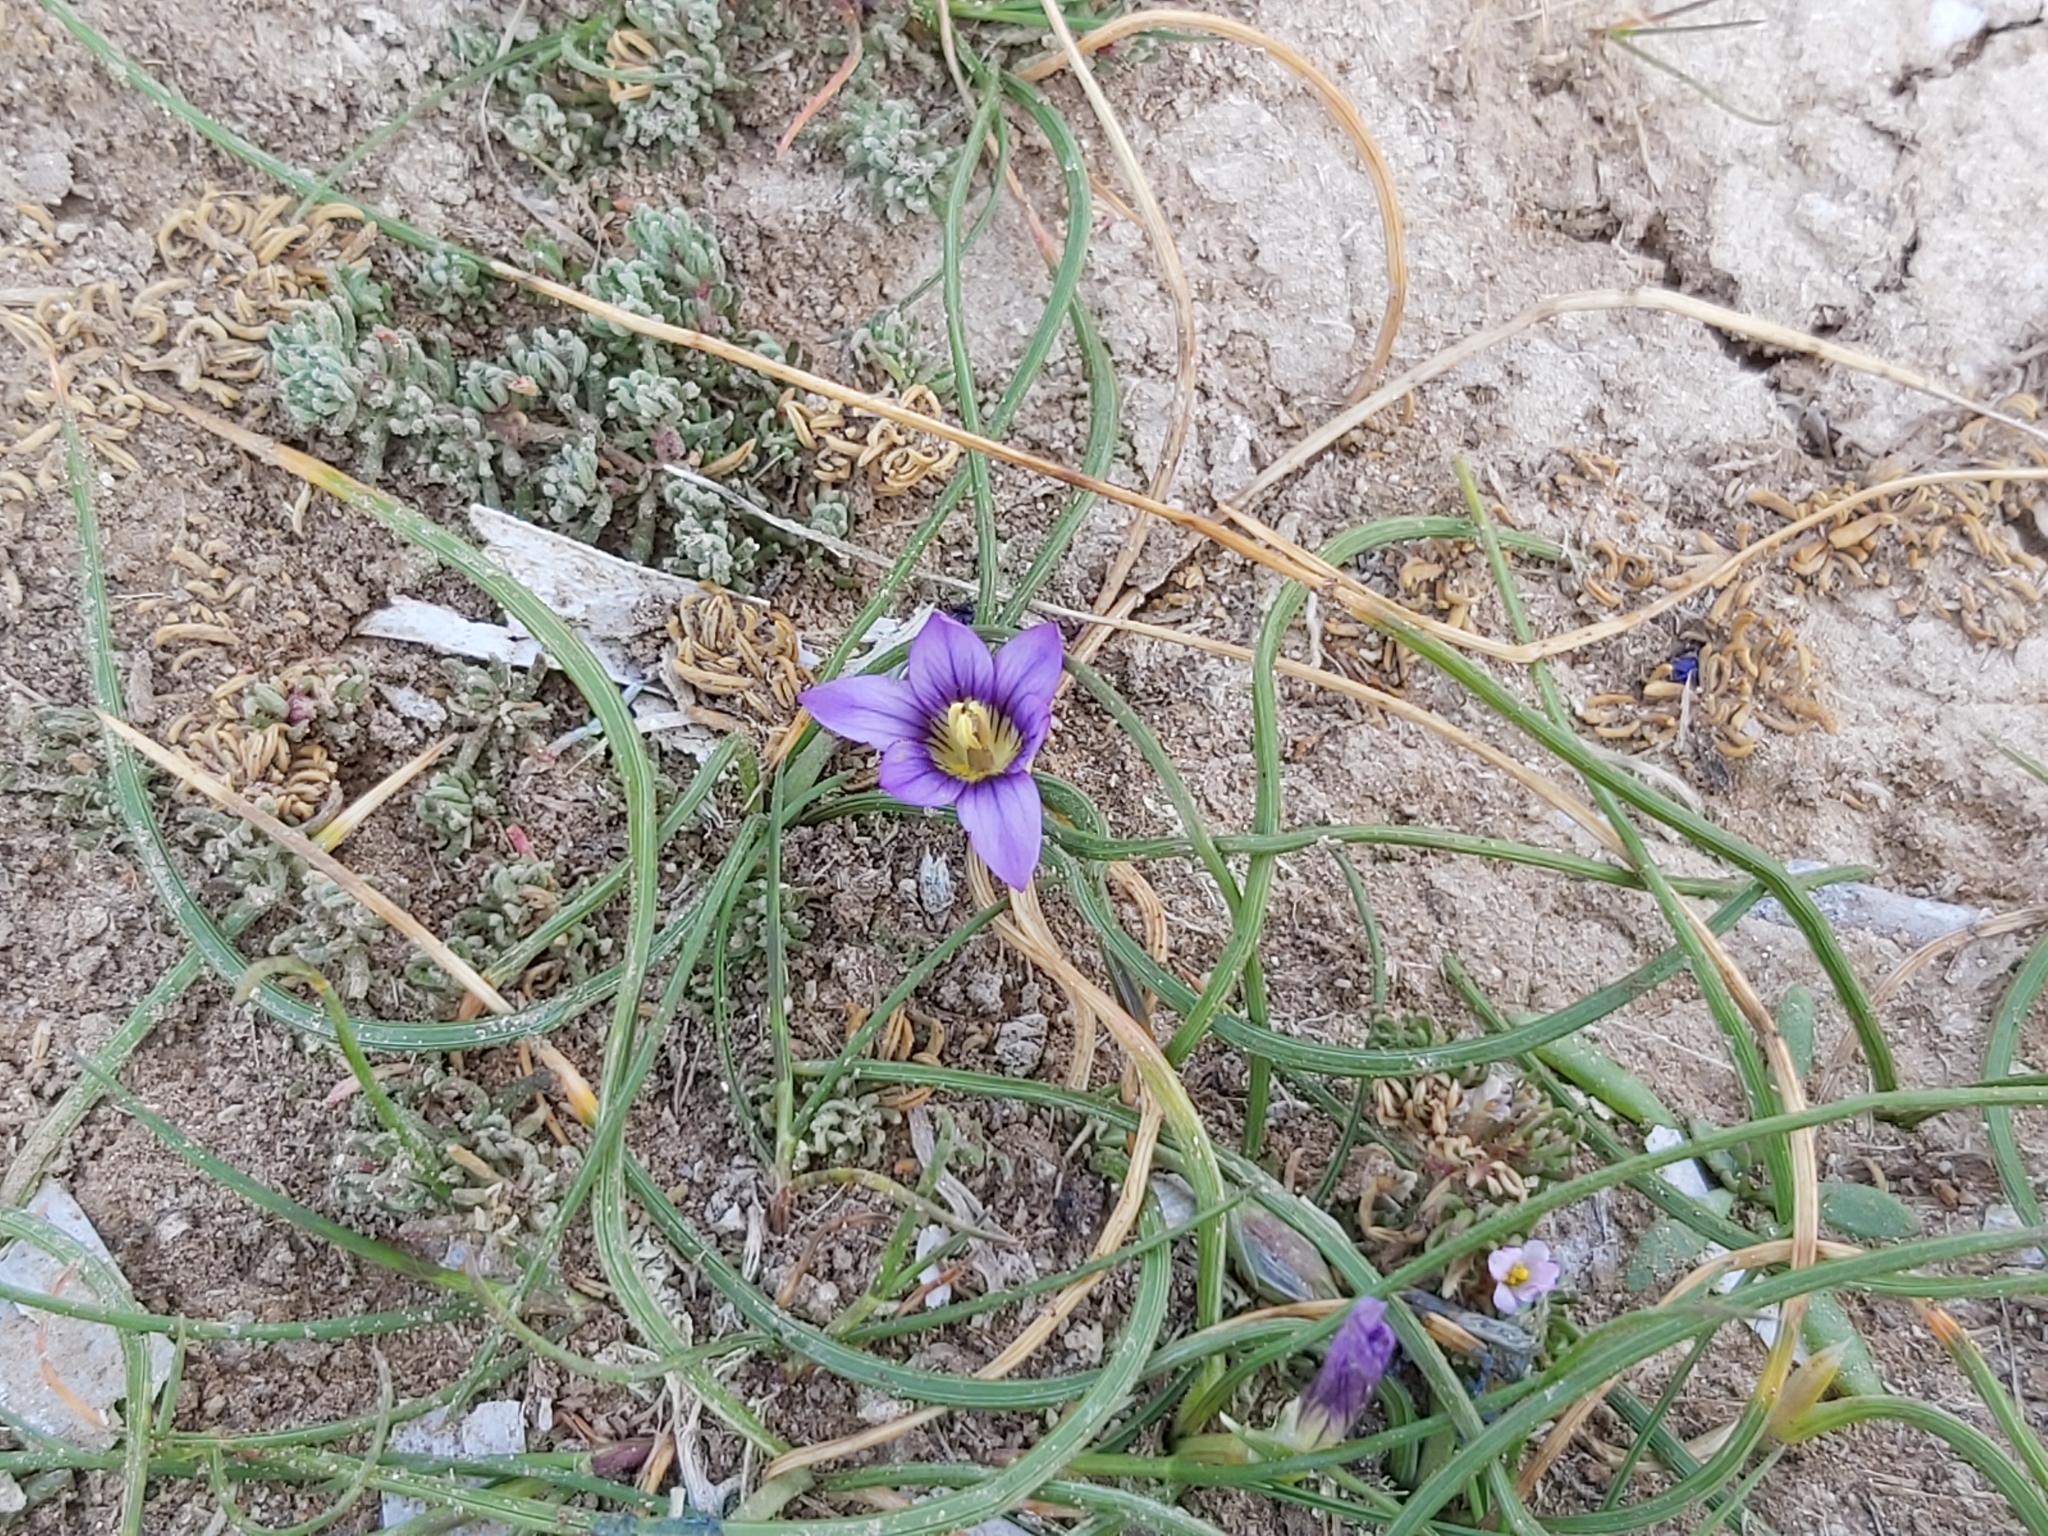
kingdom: Plantae
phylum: Tracheophyta
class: Liliopsida
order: Asparagales
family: Iridaceae
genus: Romulea
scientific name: Romulea variicolor
